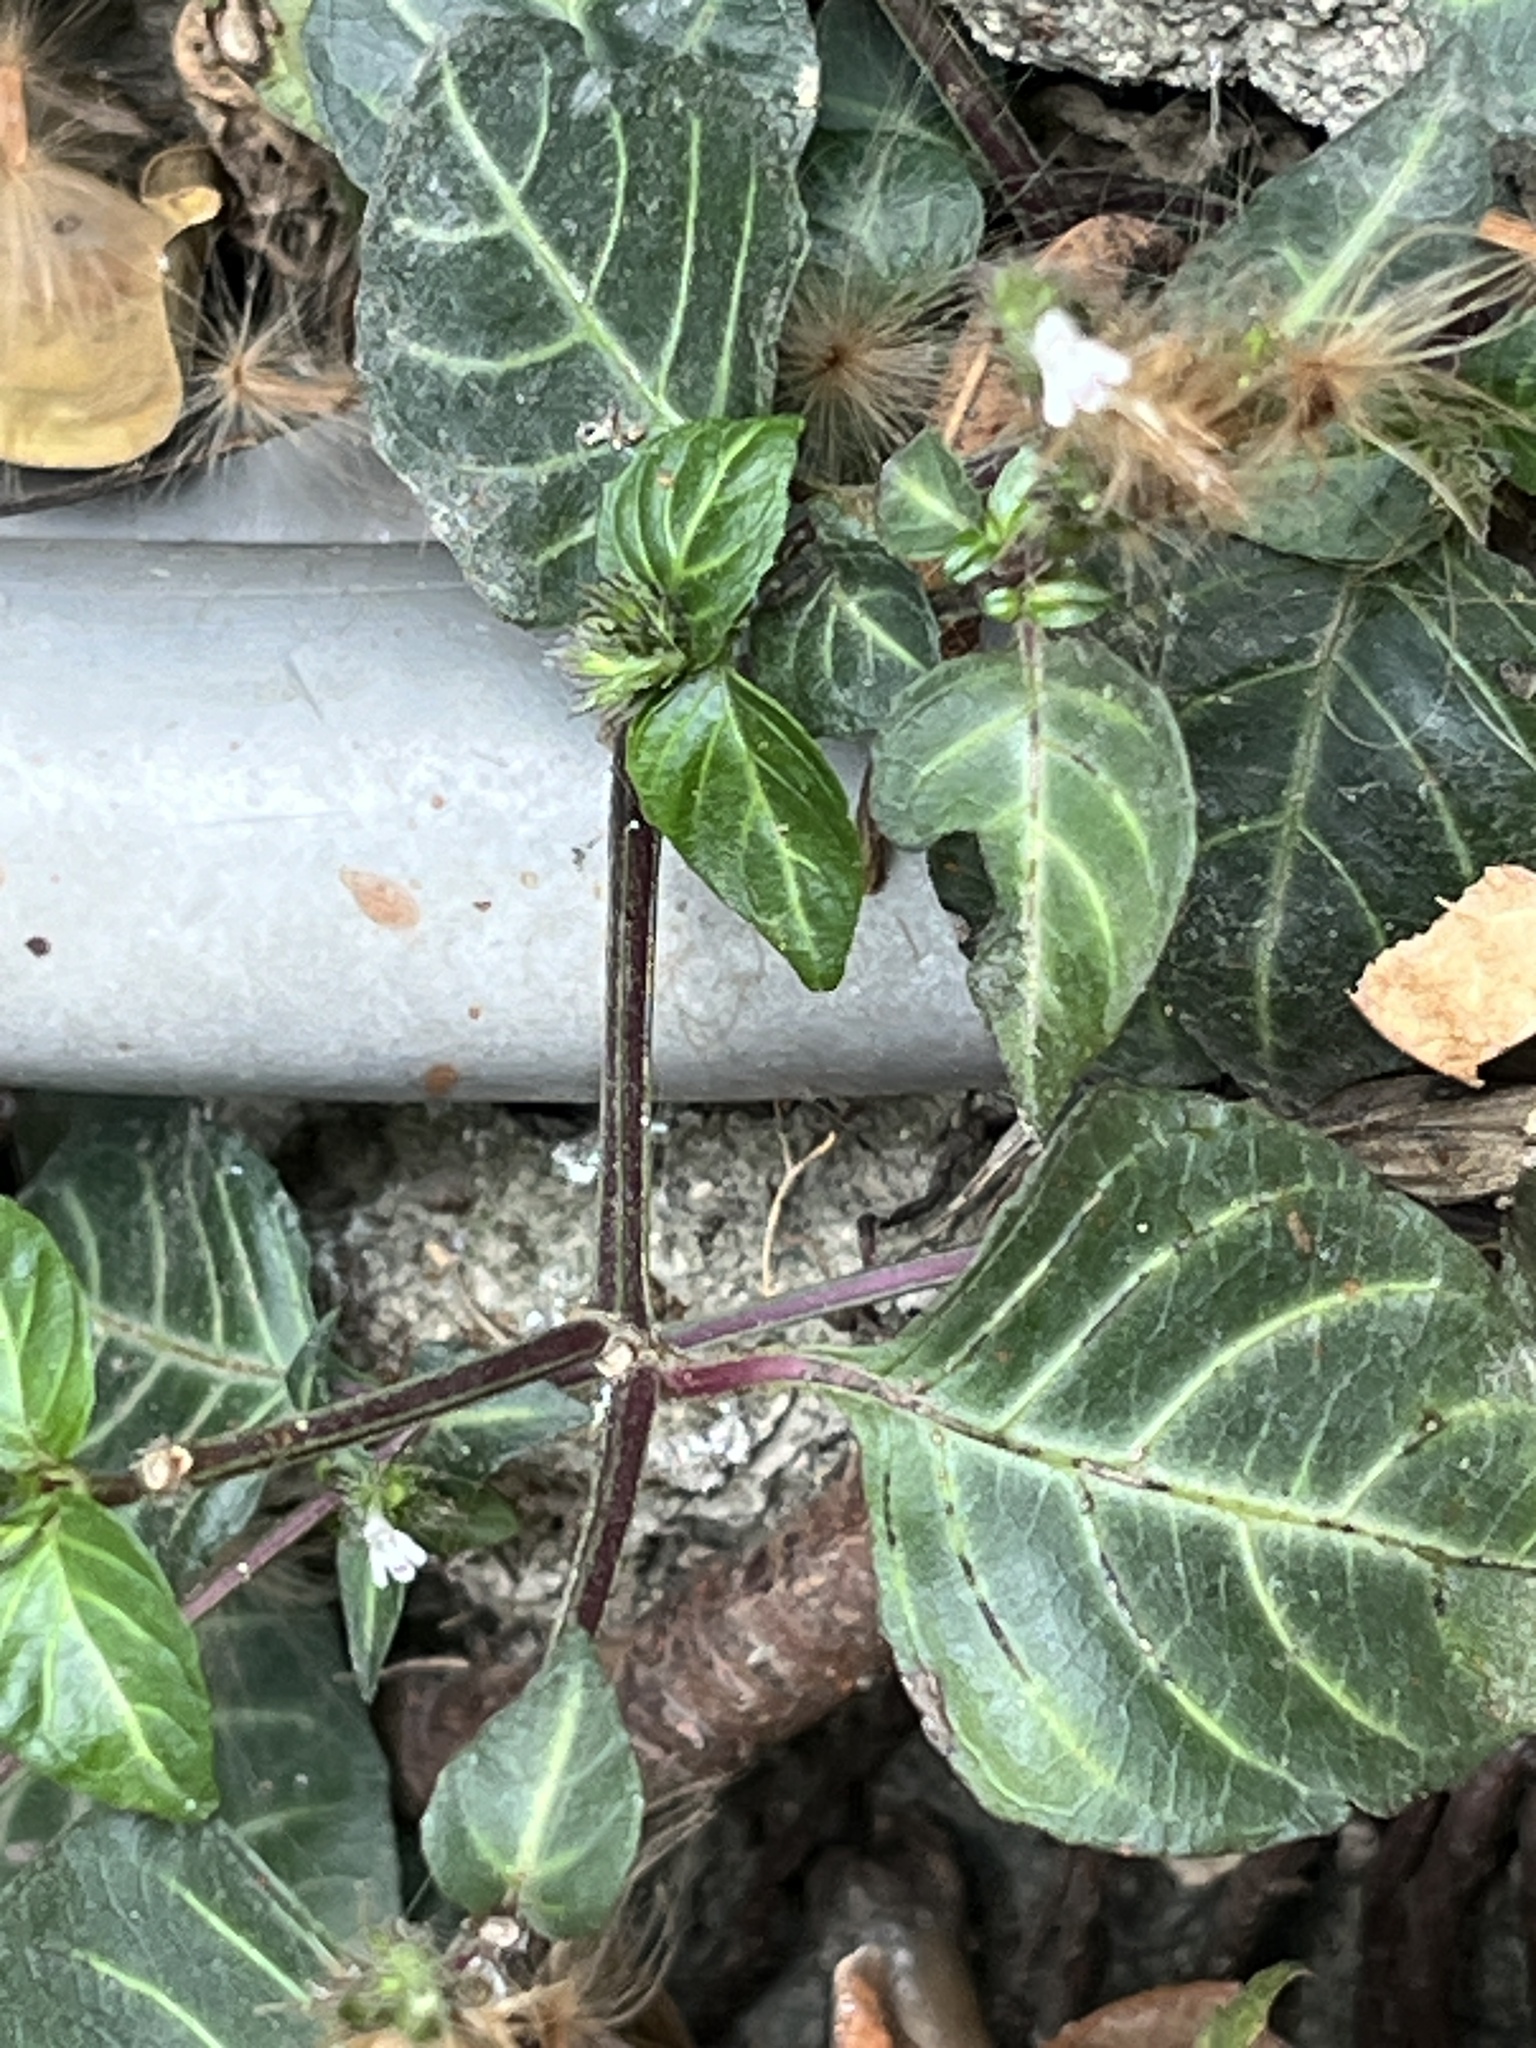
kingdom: Plantae
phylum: Tracheophyta
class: Magnoliopsida
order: Lamiales
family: Acanthaceae
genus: Lepidagathis
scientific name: Lepidagathis formosensis
